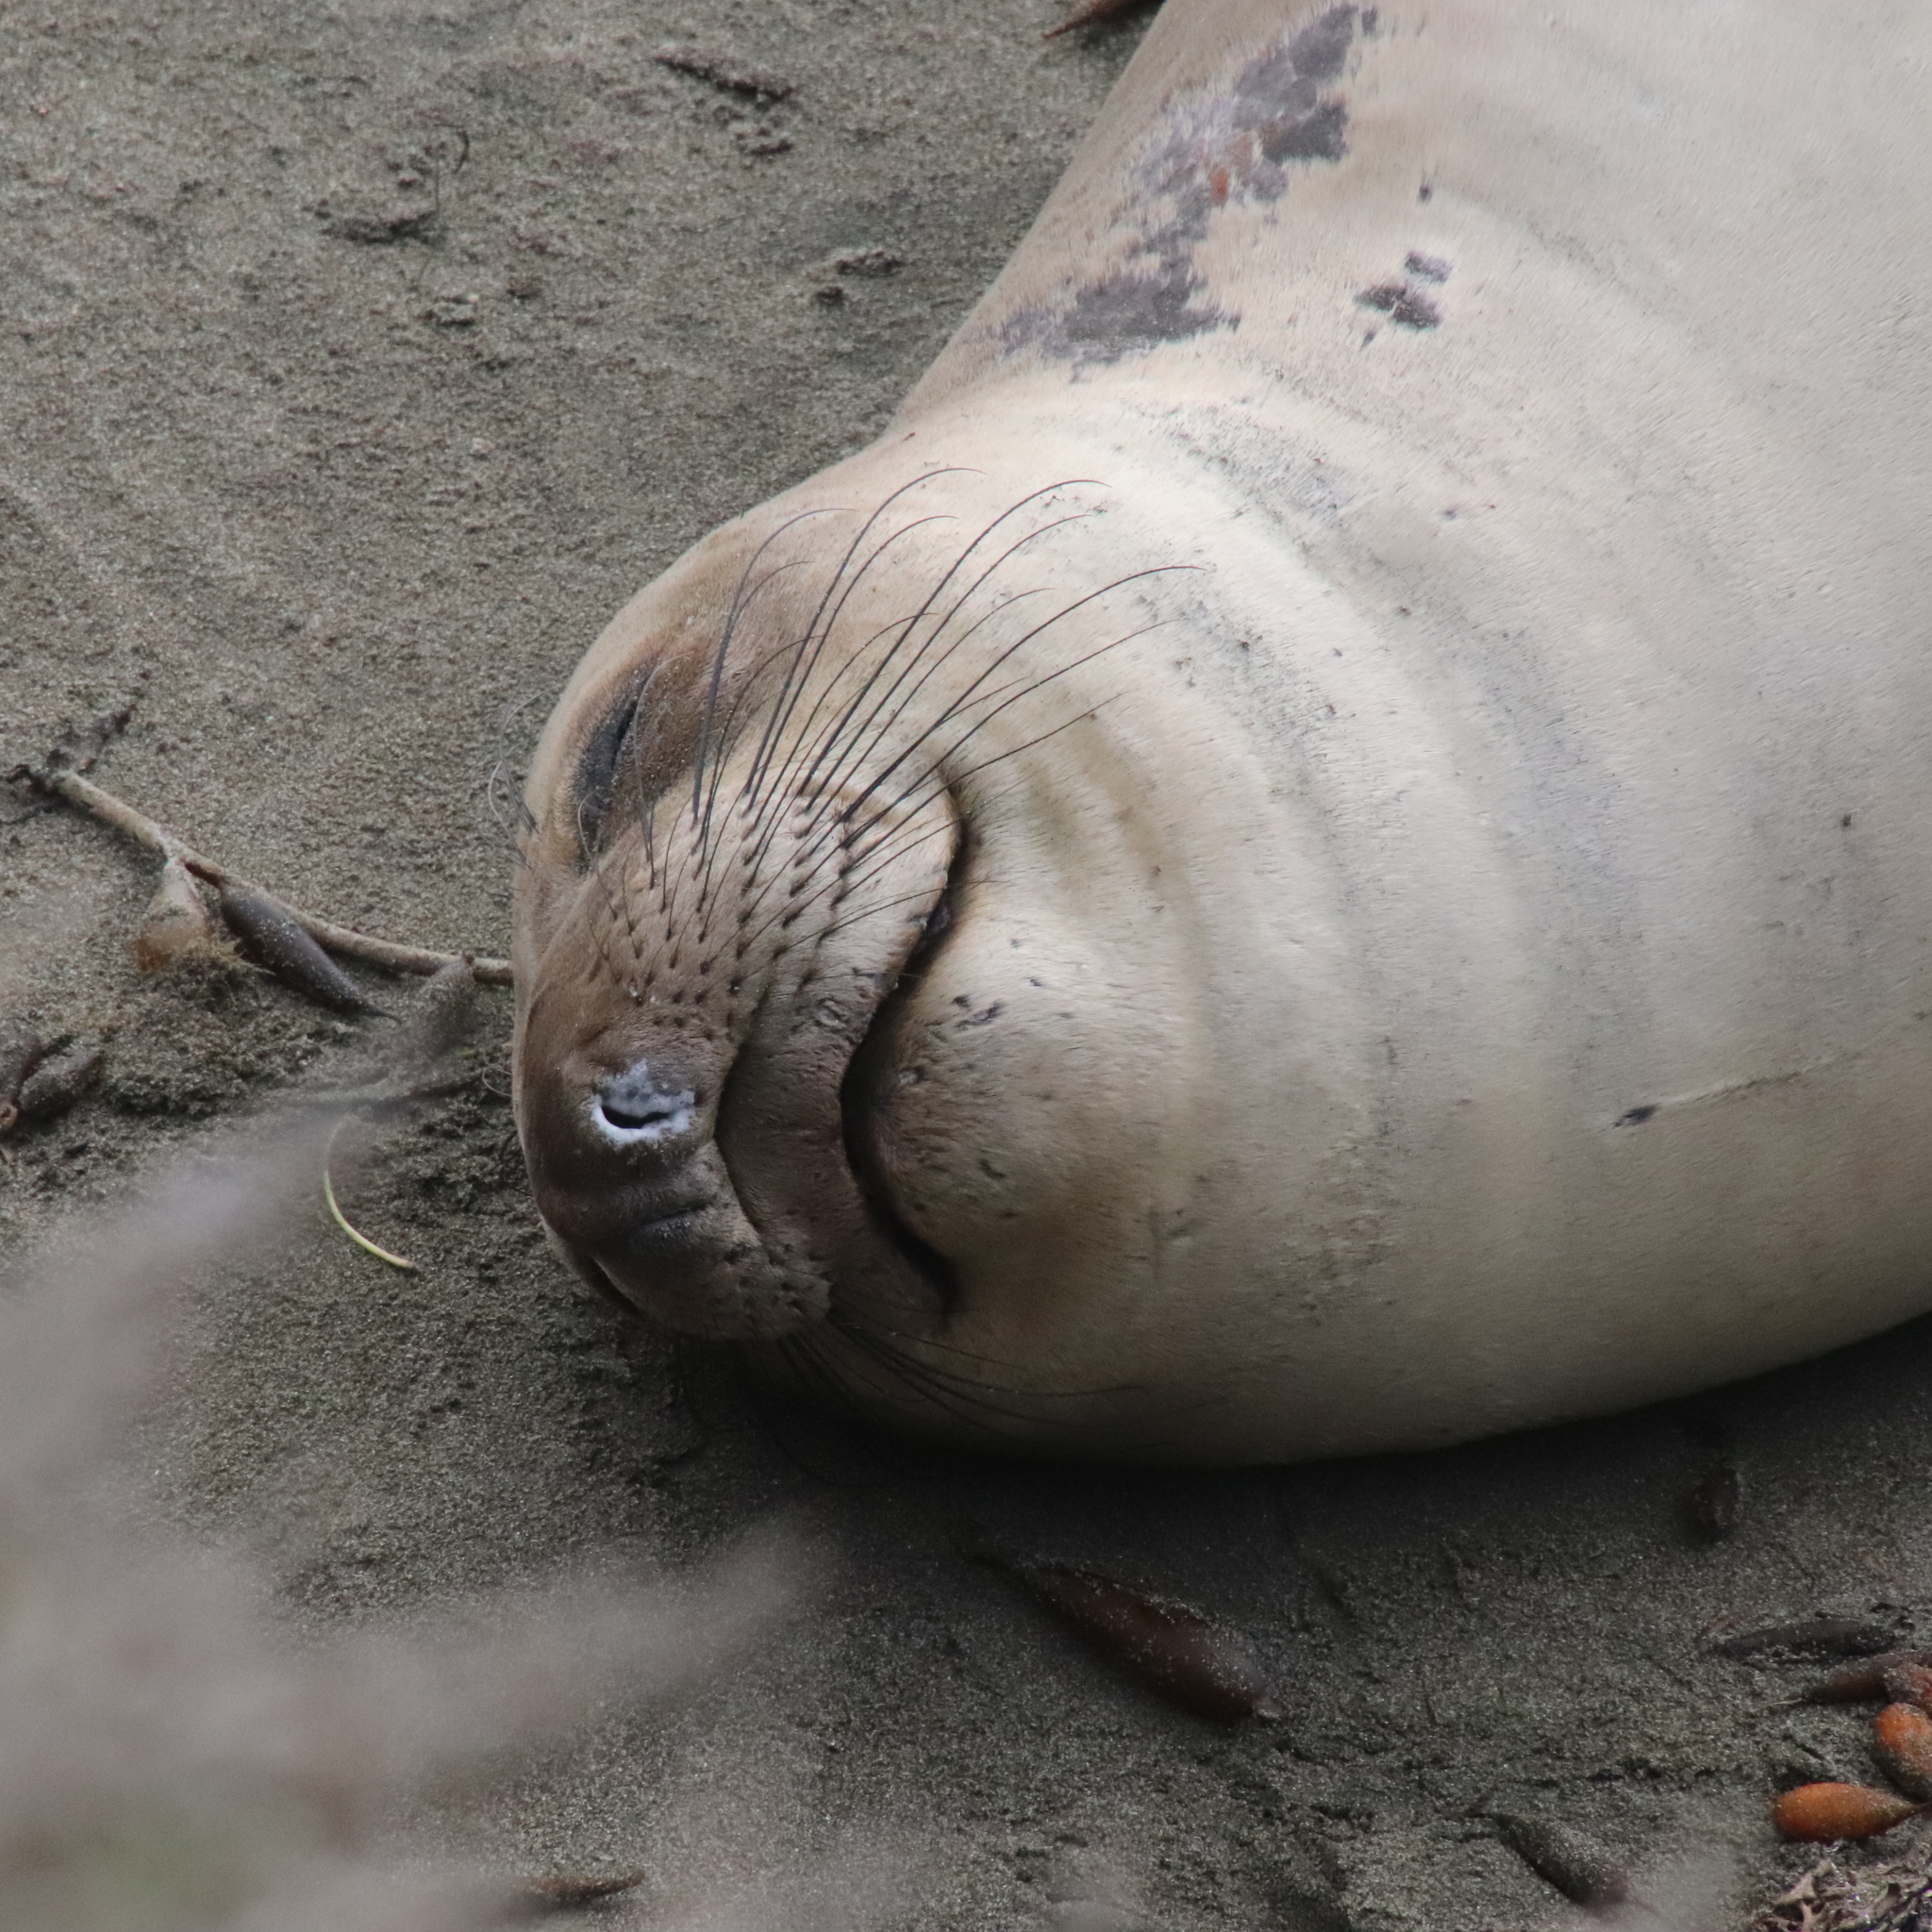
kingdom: Animalia
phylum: Chordata
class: Mammalia
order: Carnivora
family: Phocidae
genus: Mirounga
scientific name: Mirounga angustirostris
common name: Northern elephant seal
